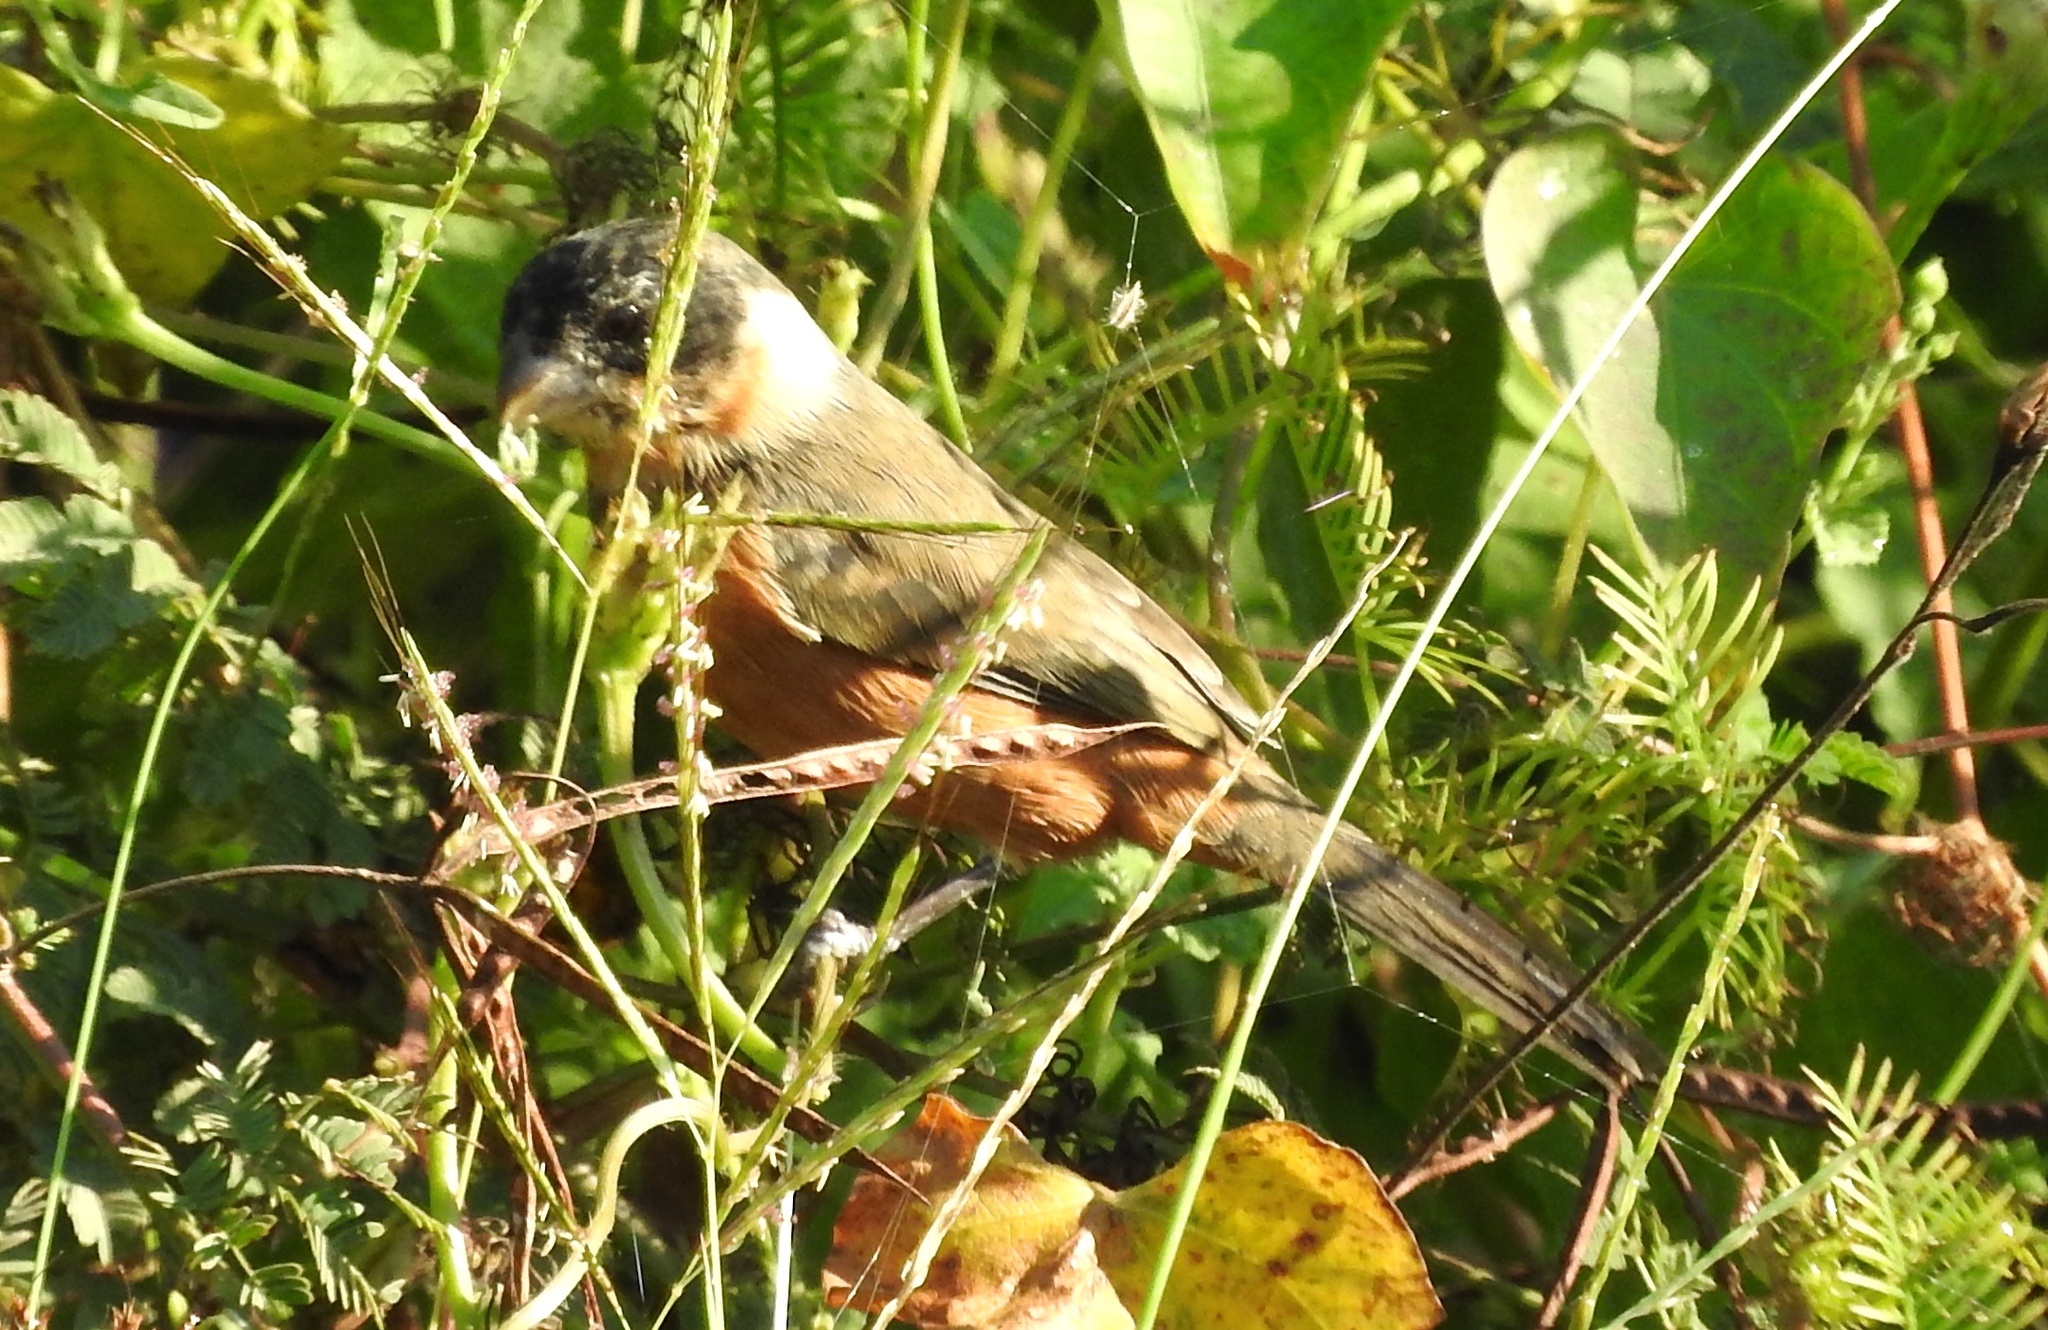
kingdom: Animalia
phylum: Chordata
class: Aves
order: Passeriformes
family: Thraupidae
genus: Sporophila
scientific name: Sporophila torqueola
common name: White-collared seedeater
